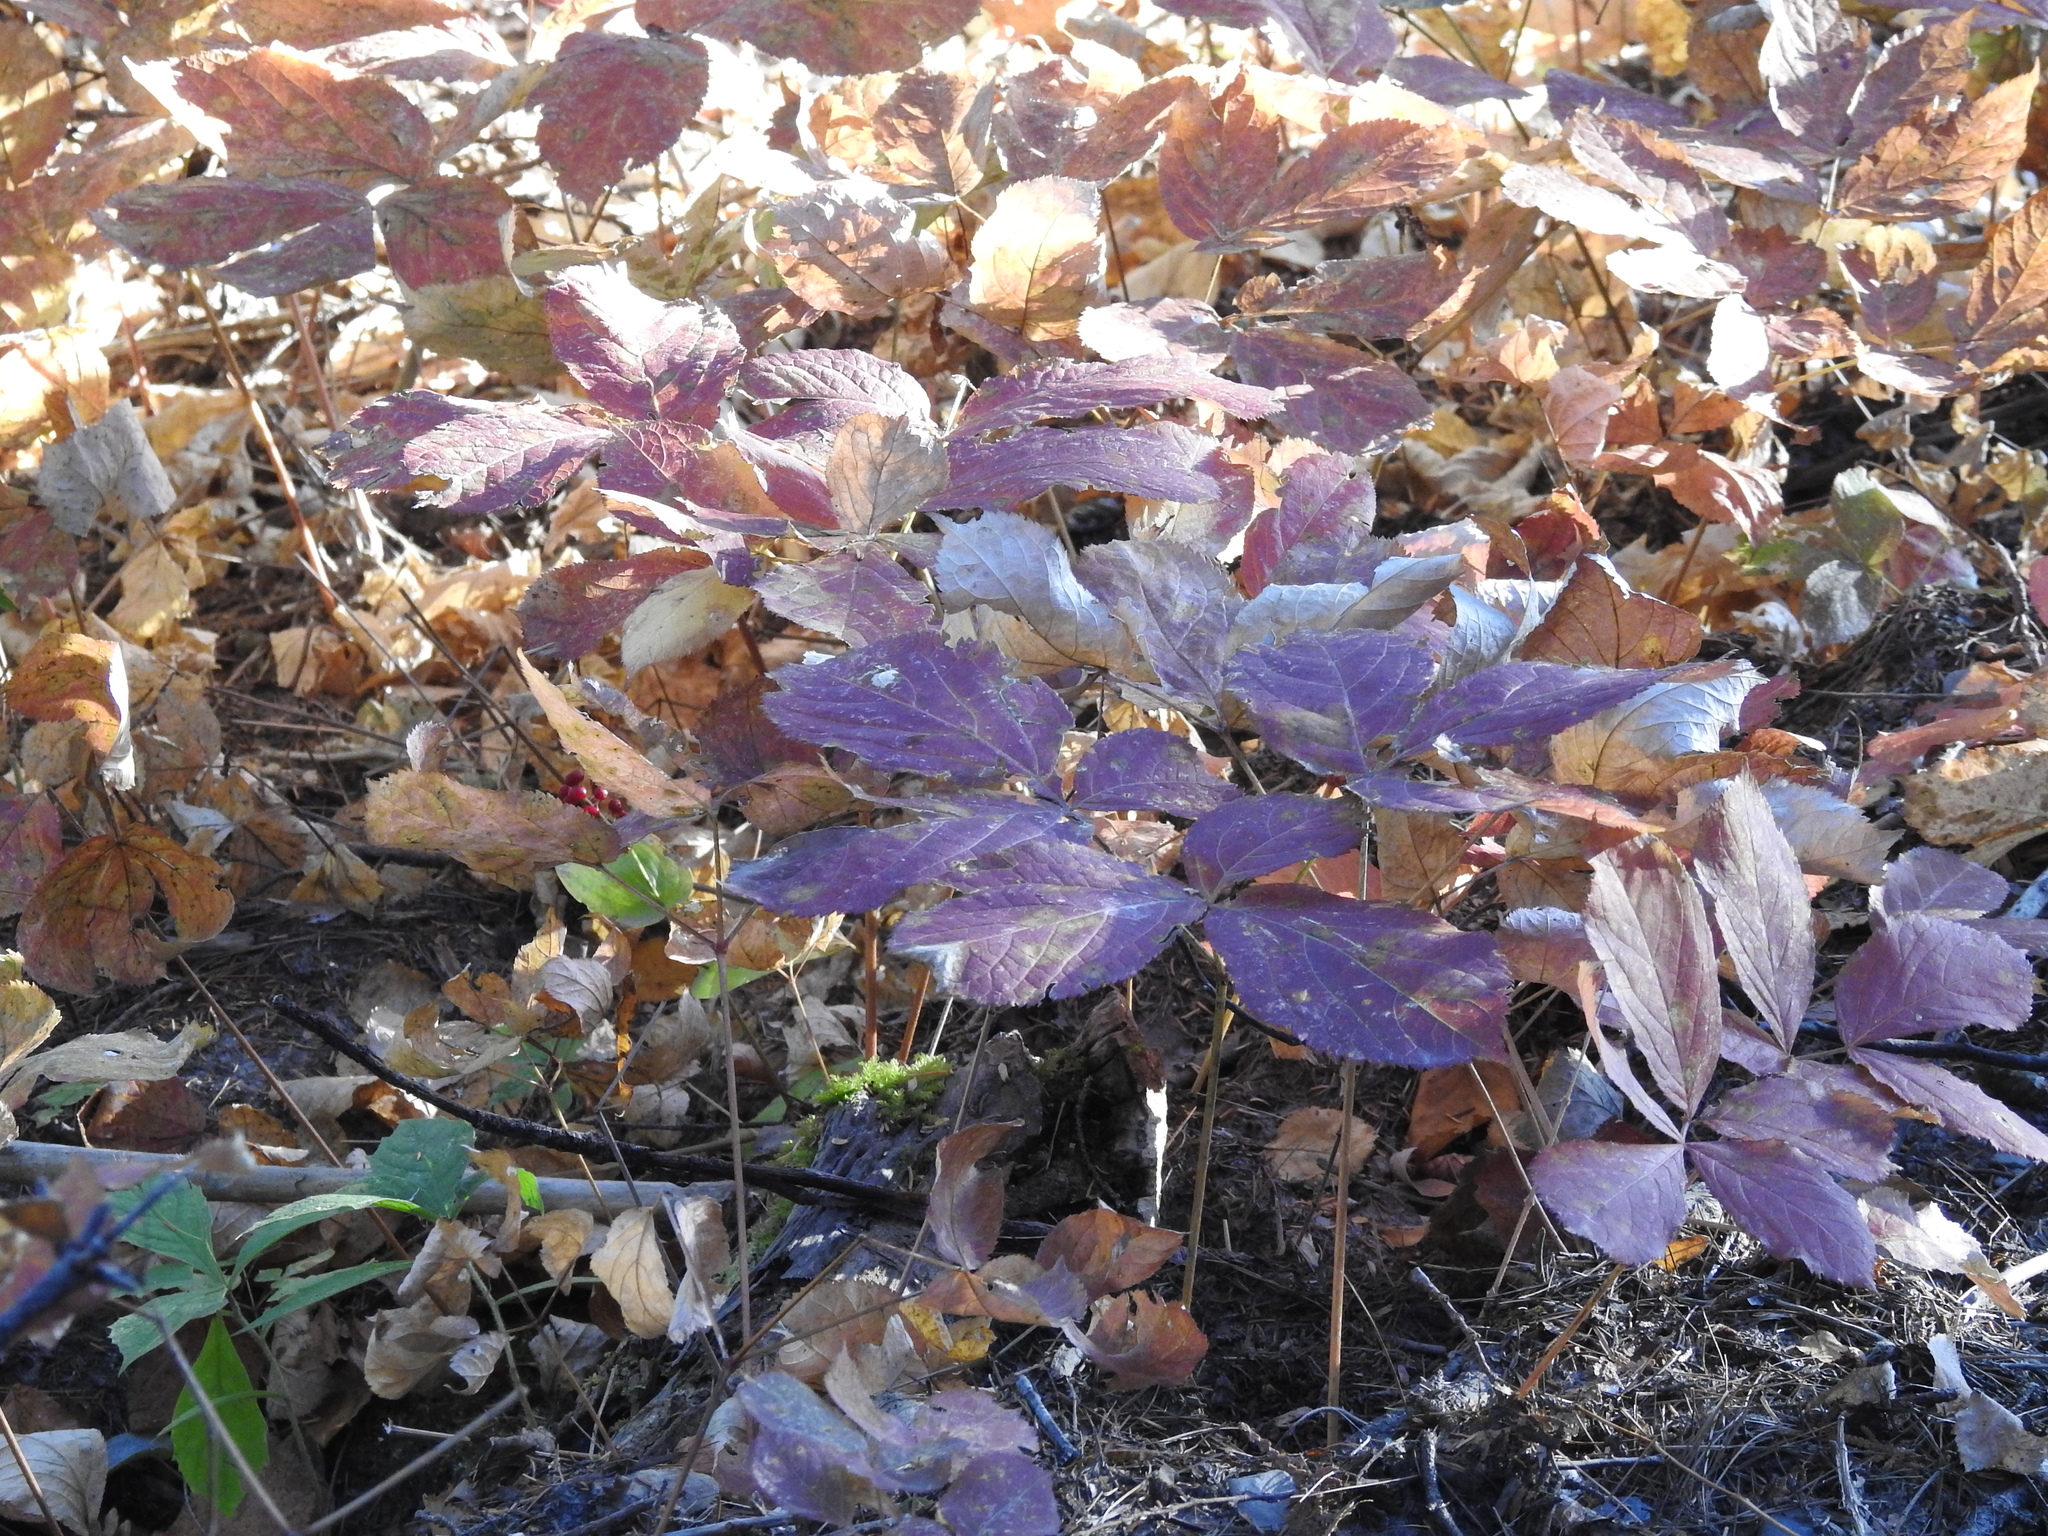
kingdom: Plantae
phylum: Tracheophyta
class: Magnoliopsida
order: Apiales
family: Araliaceae
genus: Aralia
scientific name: Aralia nudicaulis
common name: Wild sarsaparilla
